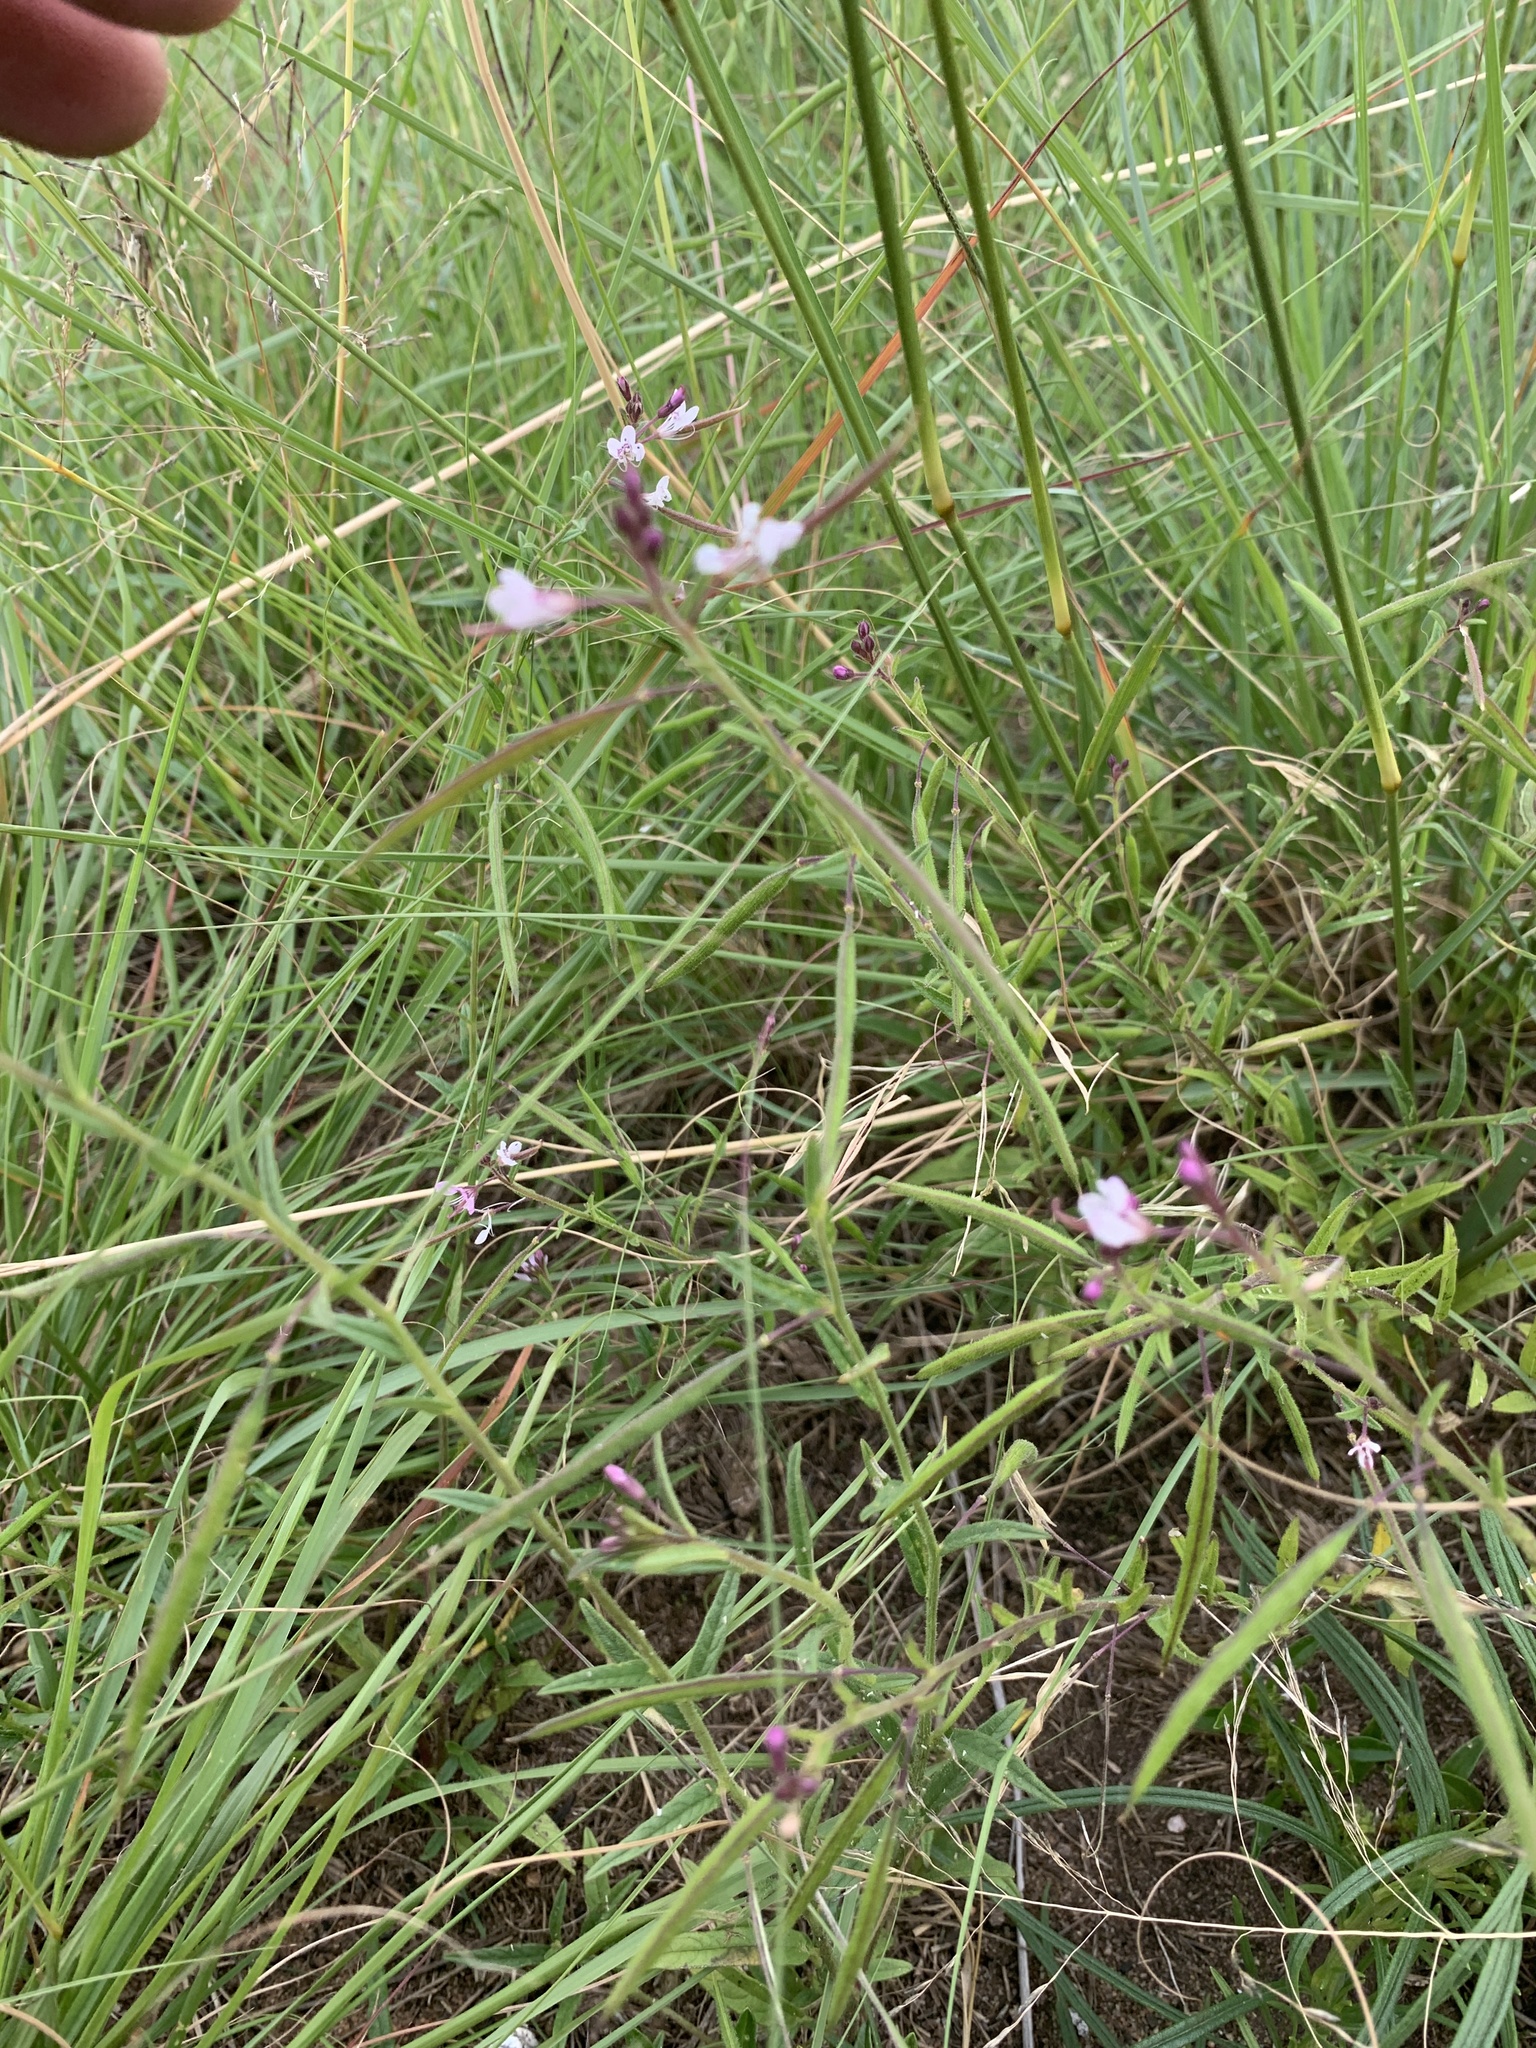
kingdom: Plantae
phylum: Tracheophyta
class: Magnoliopsida
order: Brassicales
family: Cleomaceae
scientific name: Cleomaceae
